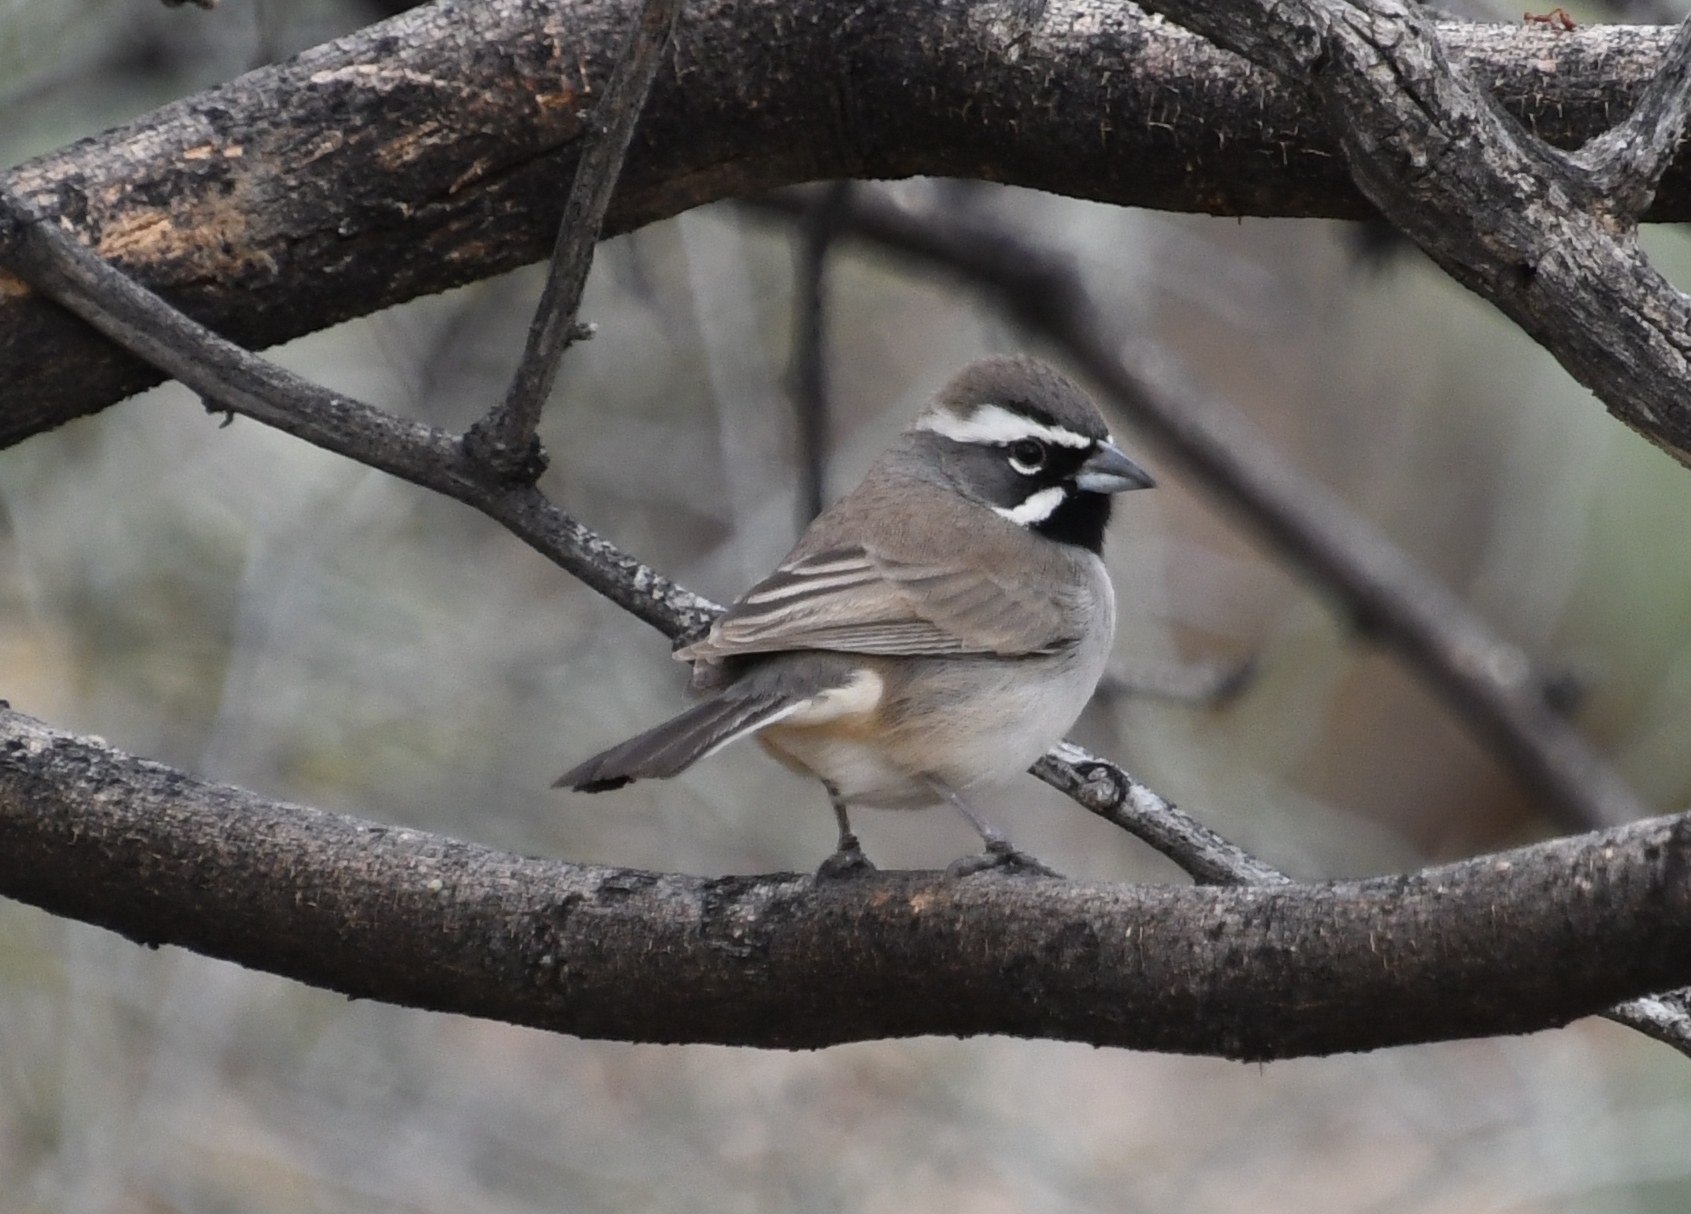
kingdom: Animalia
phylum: Chordata
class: Aves
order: Passeriformes
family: Passerellidae
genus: Amphispiza
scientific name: Amphispiza bilineata
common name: Black-throated sparrow
